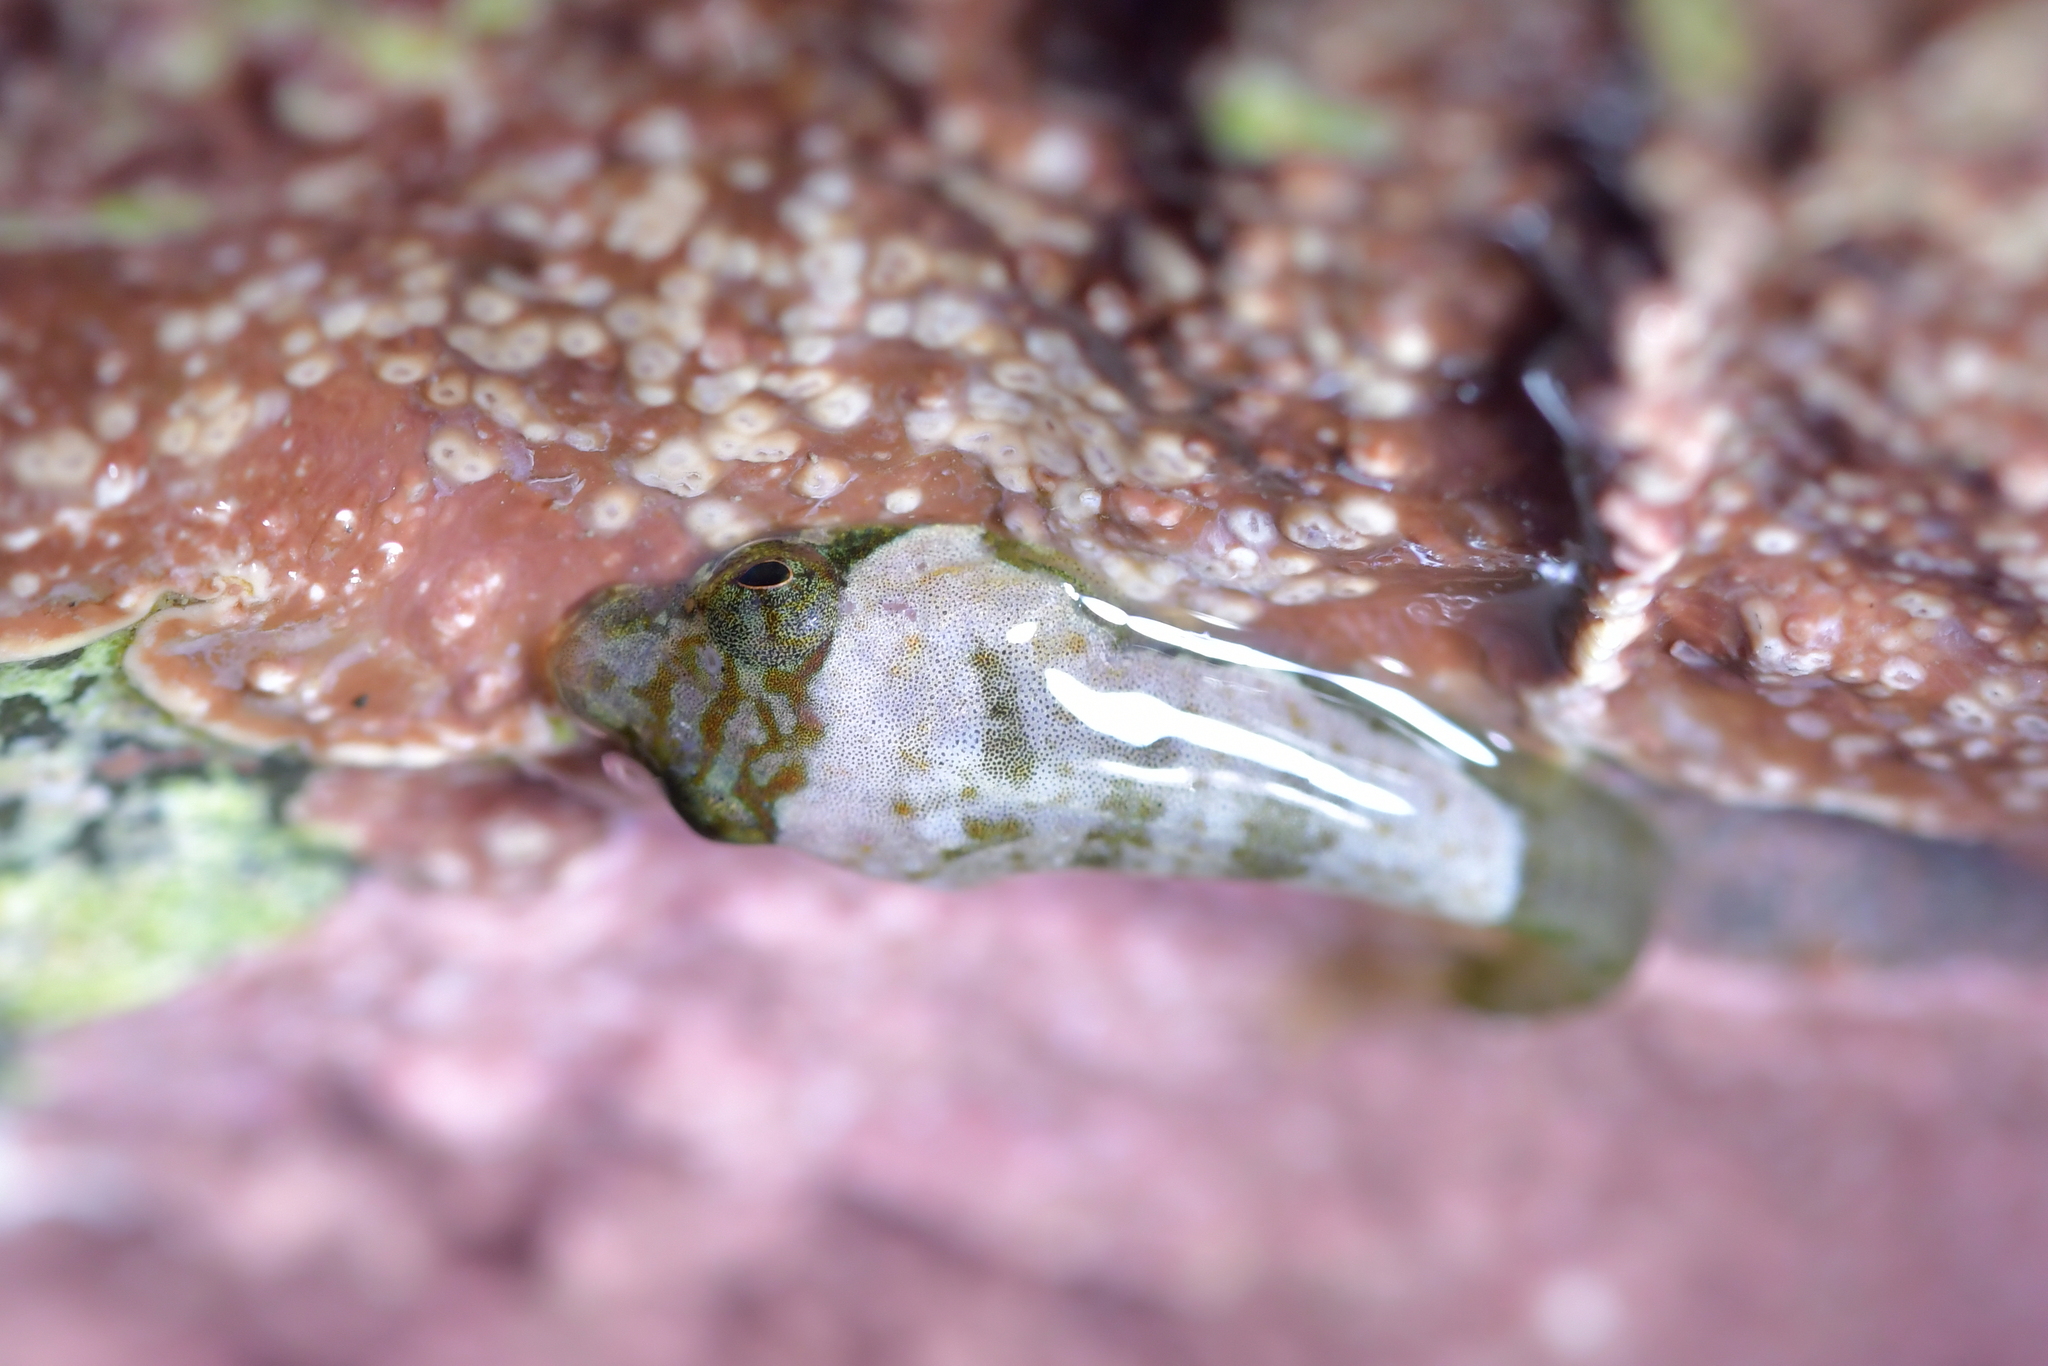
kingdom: Animalia
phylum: Chordata
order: Gobiesociformes
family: Gobiesocidae
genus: Trachelochismus
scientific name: Trachelochismus melobesia
